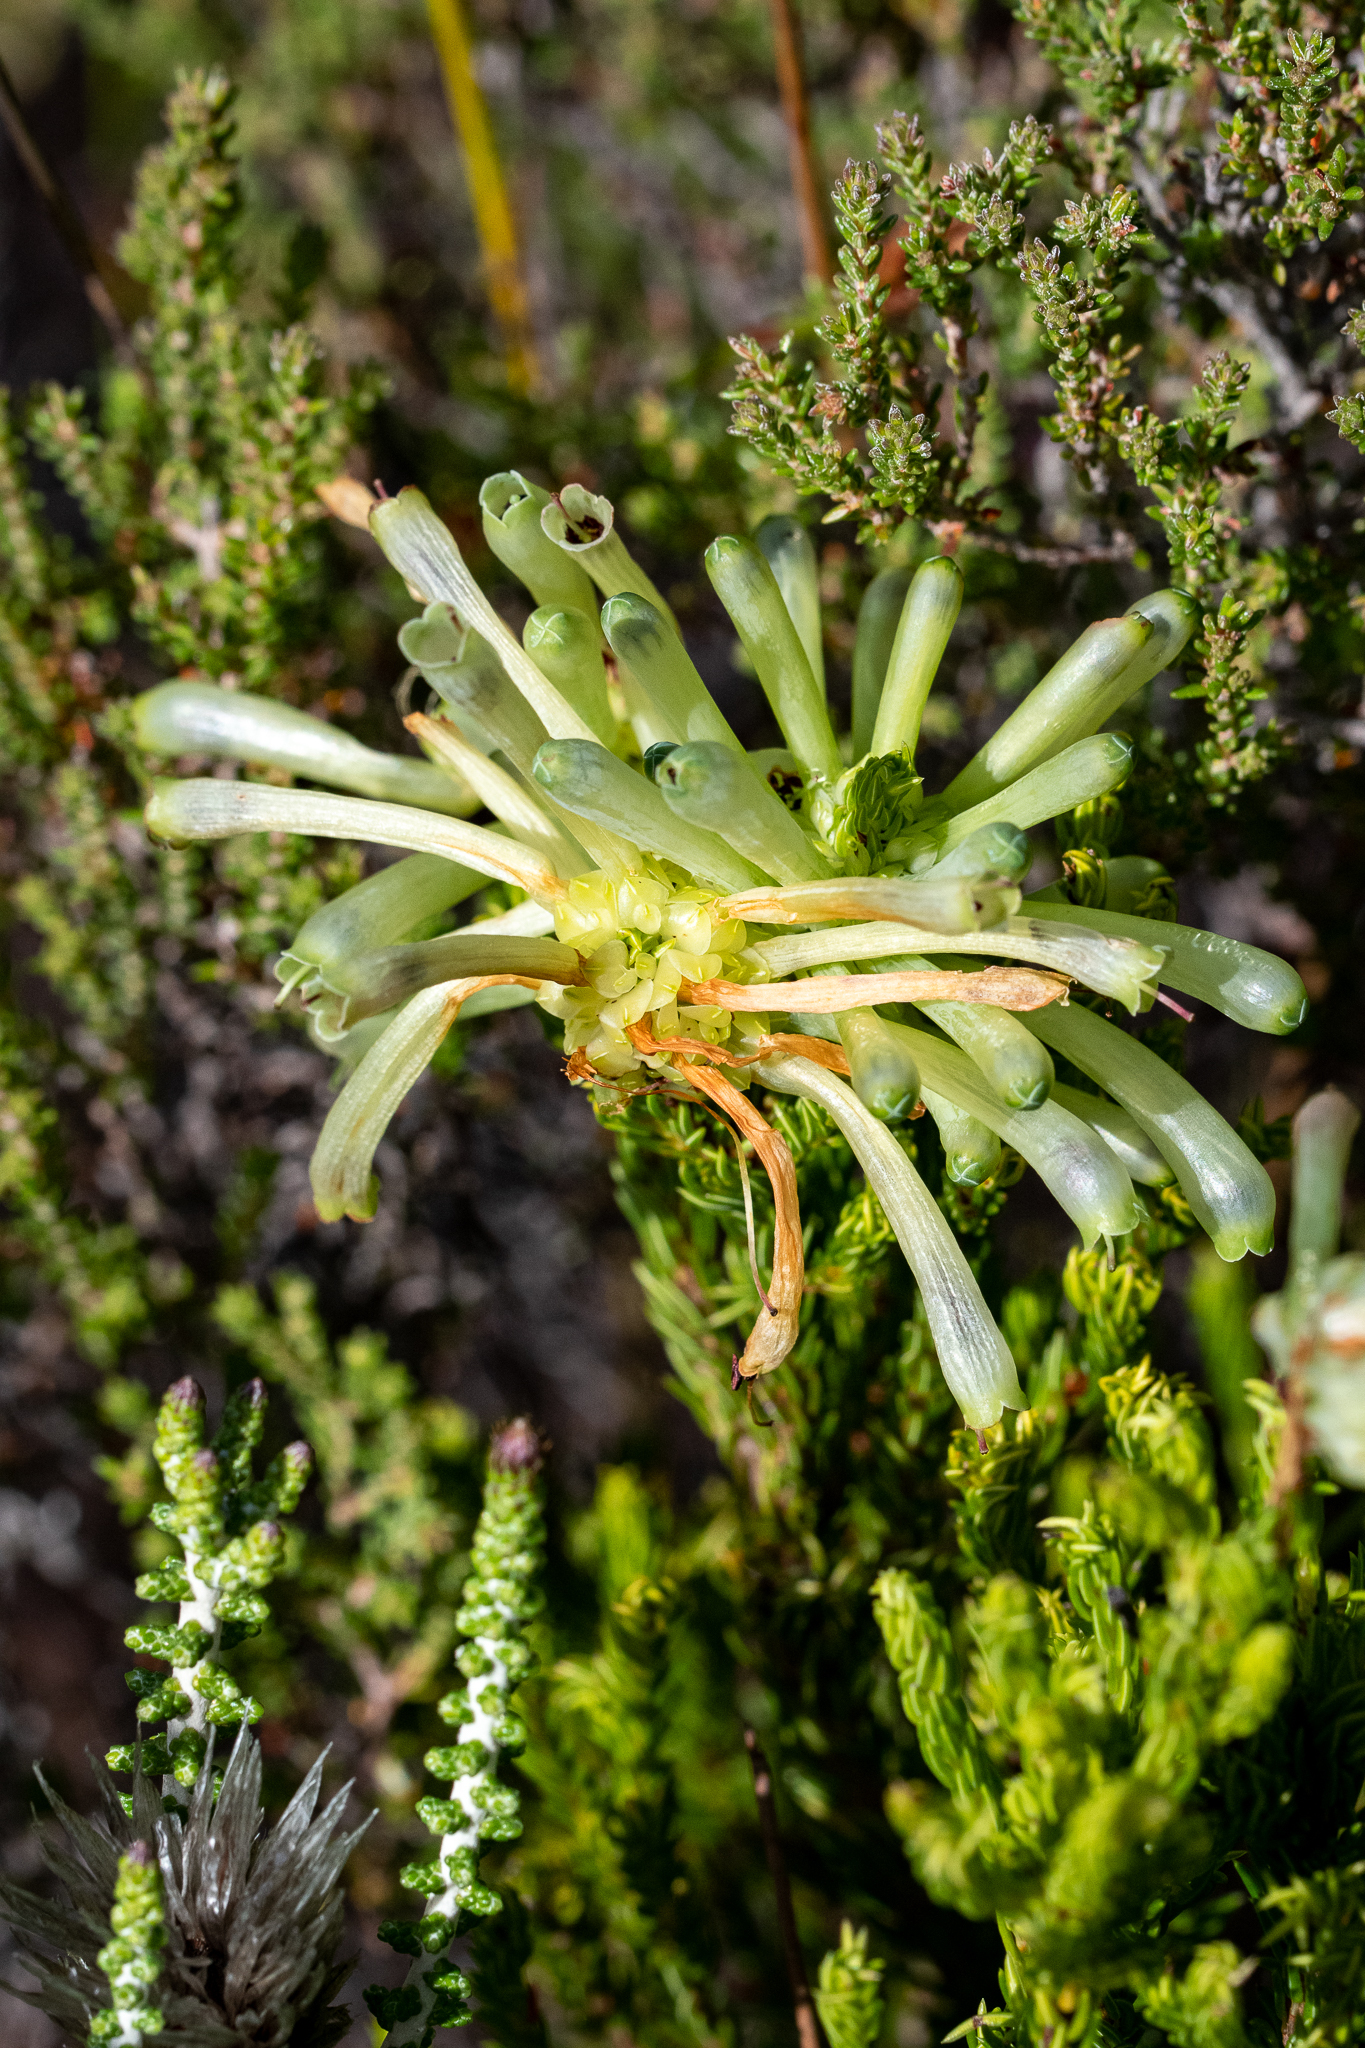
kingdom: Plantae
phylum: Tracheophyta
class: Magnoliopsida
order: Ericales
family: Ericaceae
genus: Erica
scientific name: Erica sessiliflora
